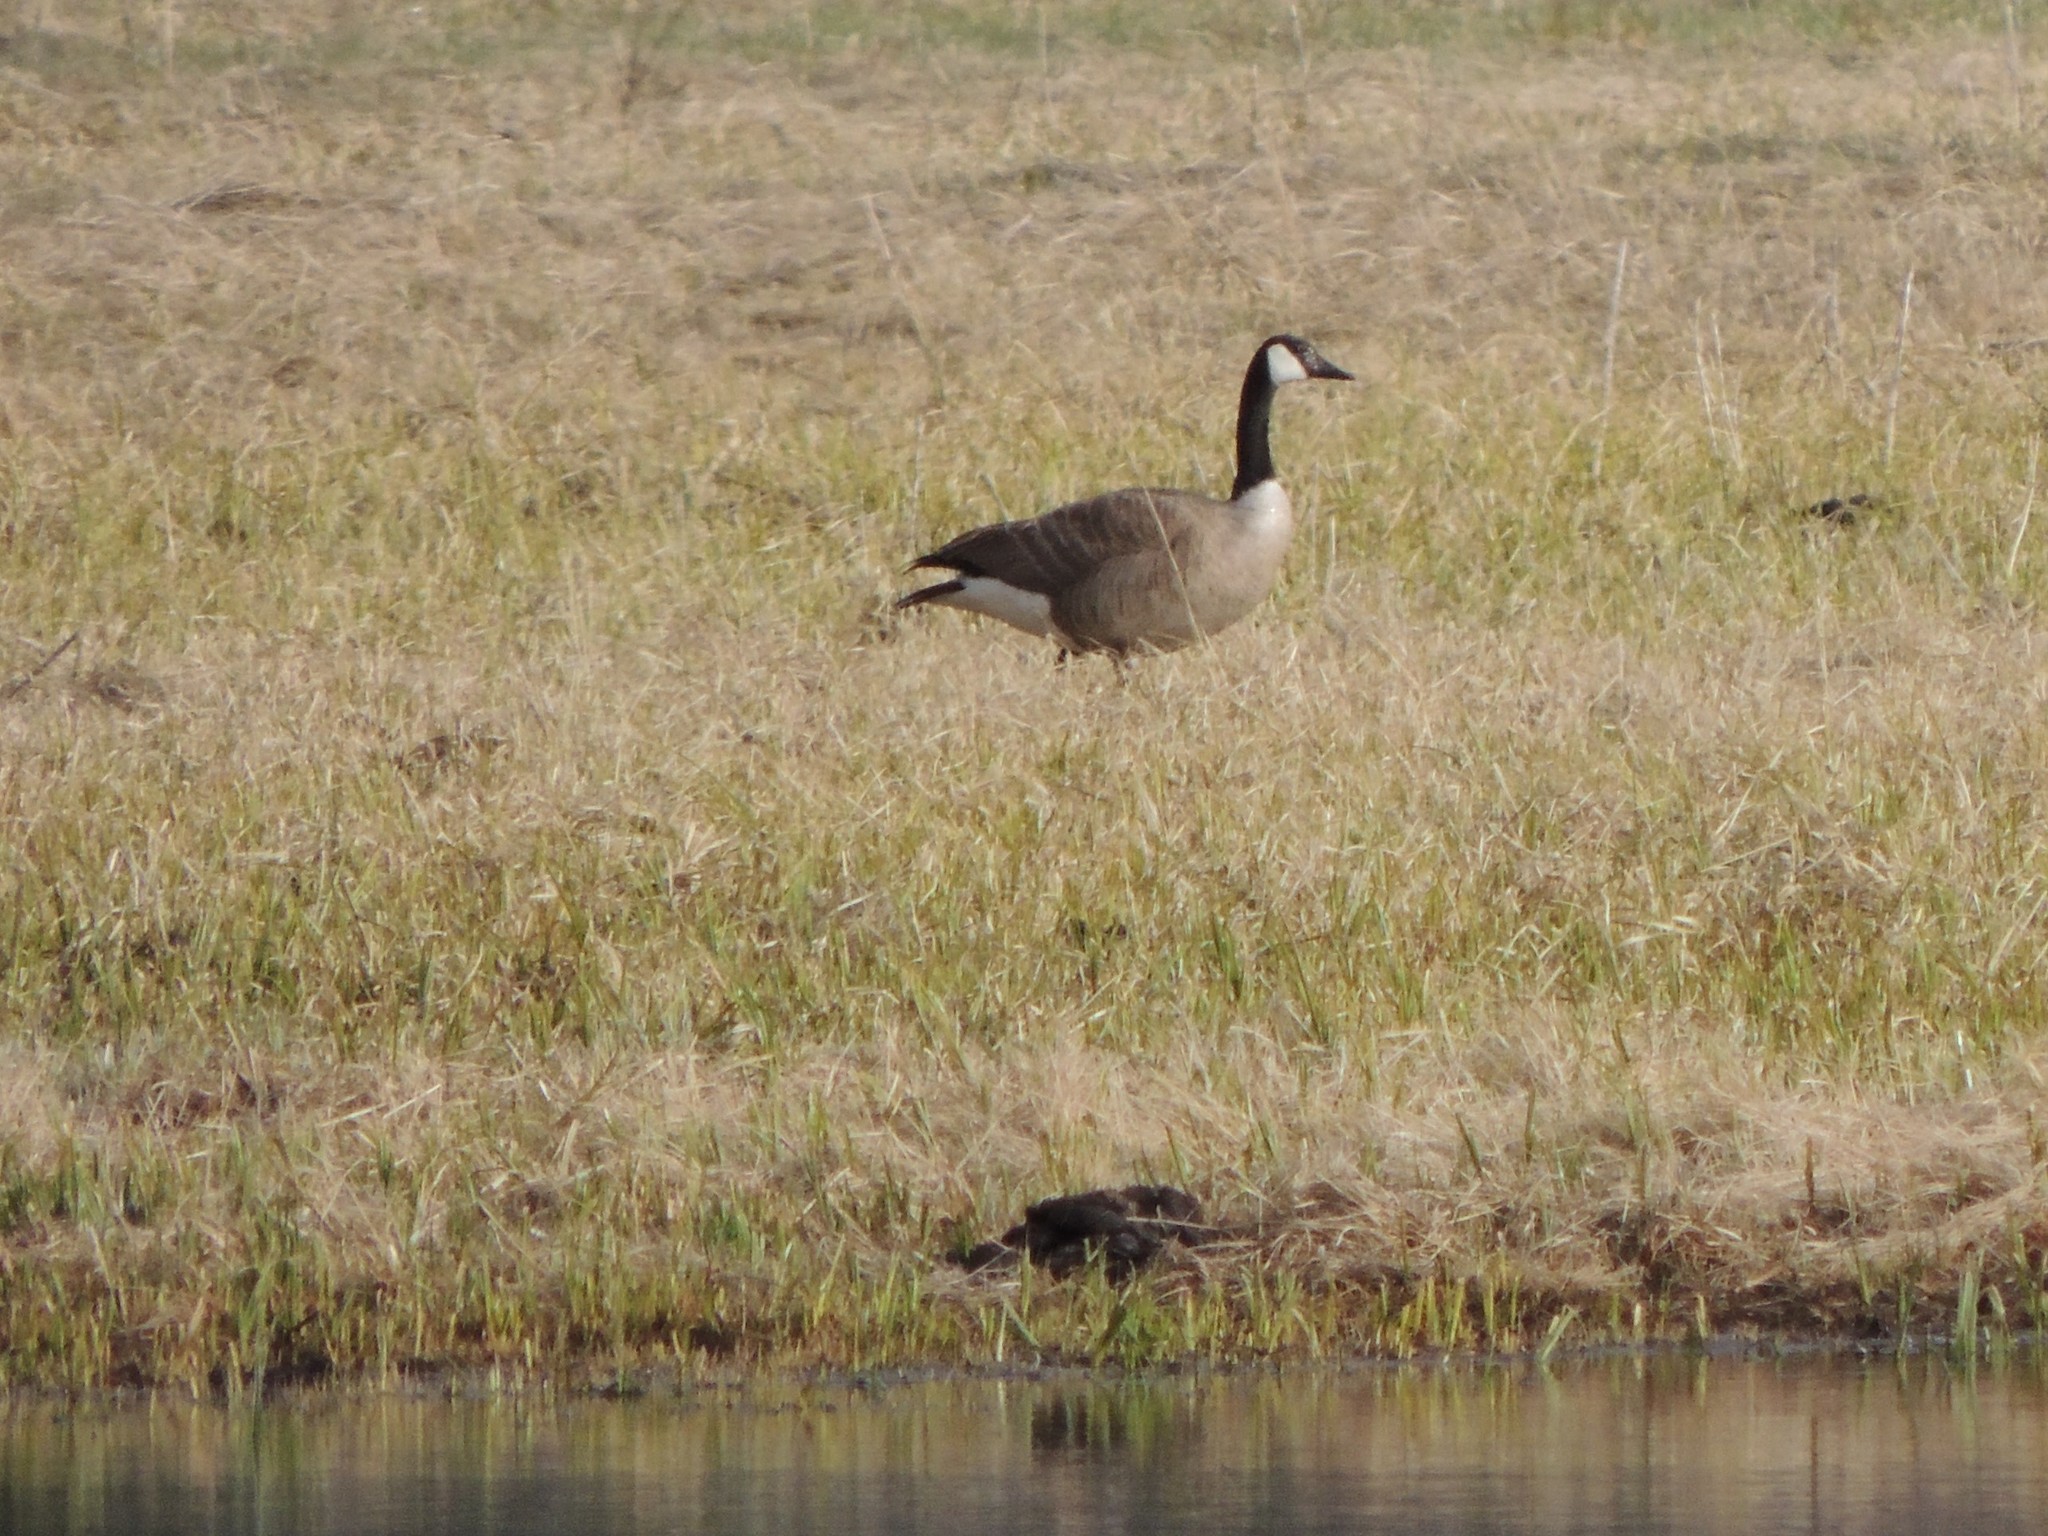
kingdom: Animalia
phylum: Chordata
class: Aves
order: Anseriformes
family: Anatidae
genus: Branta
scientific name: Branta canadensis
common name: Canada goose
